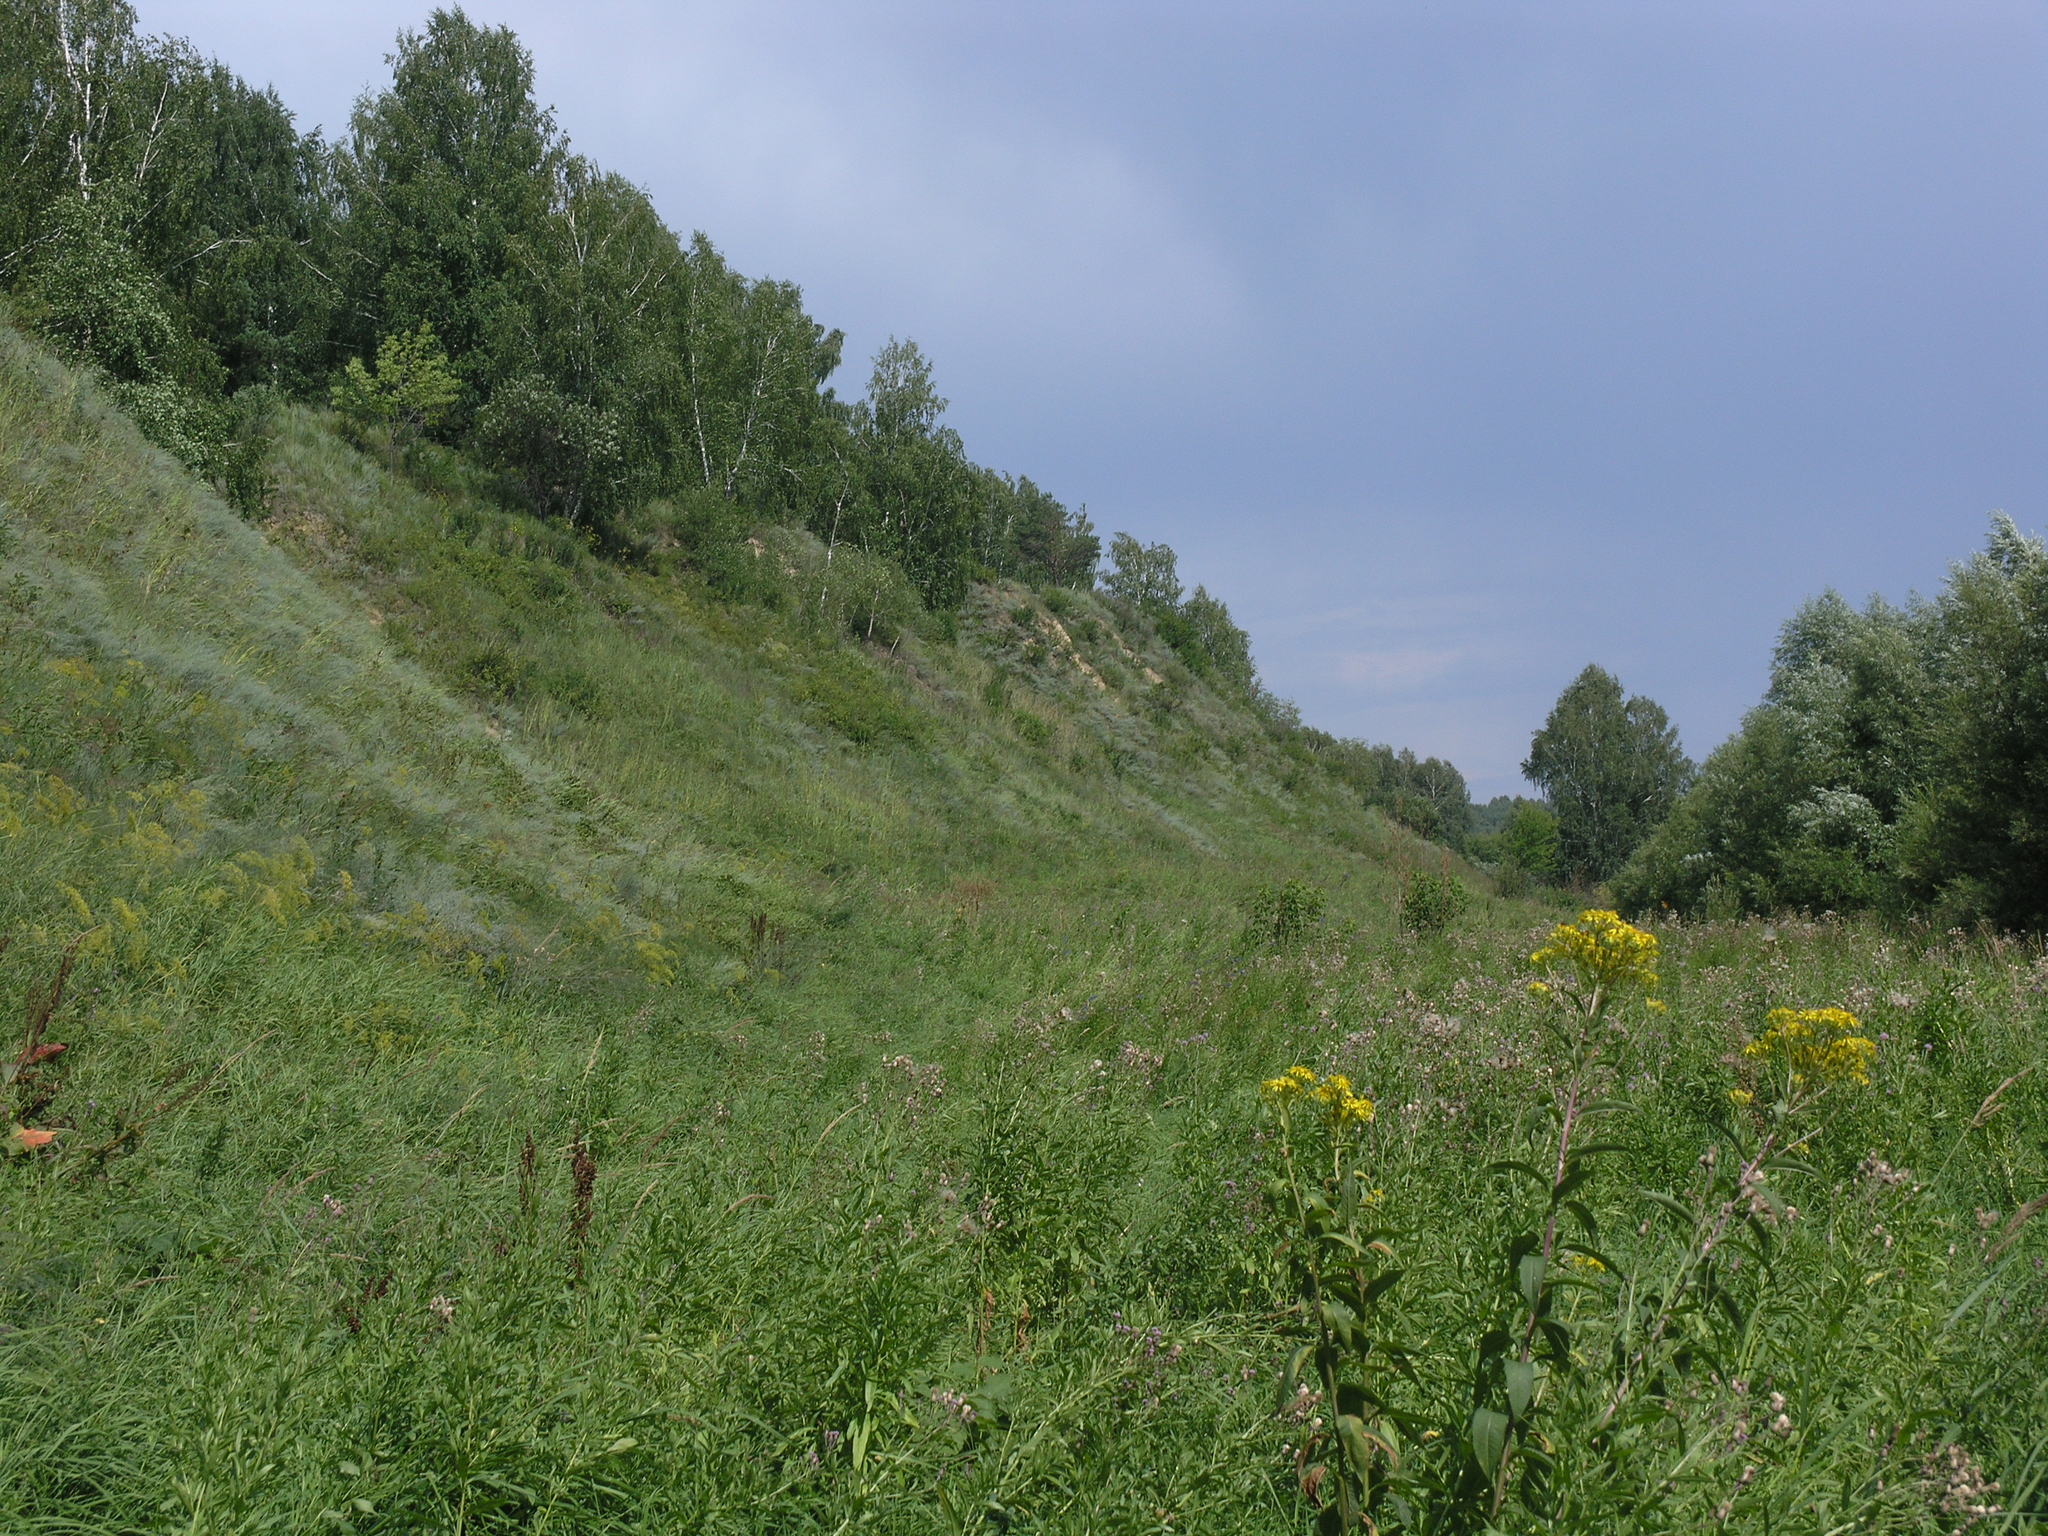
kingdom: Plantae
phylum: Tracheophyta
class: Magnoliopsida
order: Asterales
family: Asteraceae
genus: Senecio
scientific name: Senecio sarracenicus
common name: Broad-leaved ragwort
